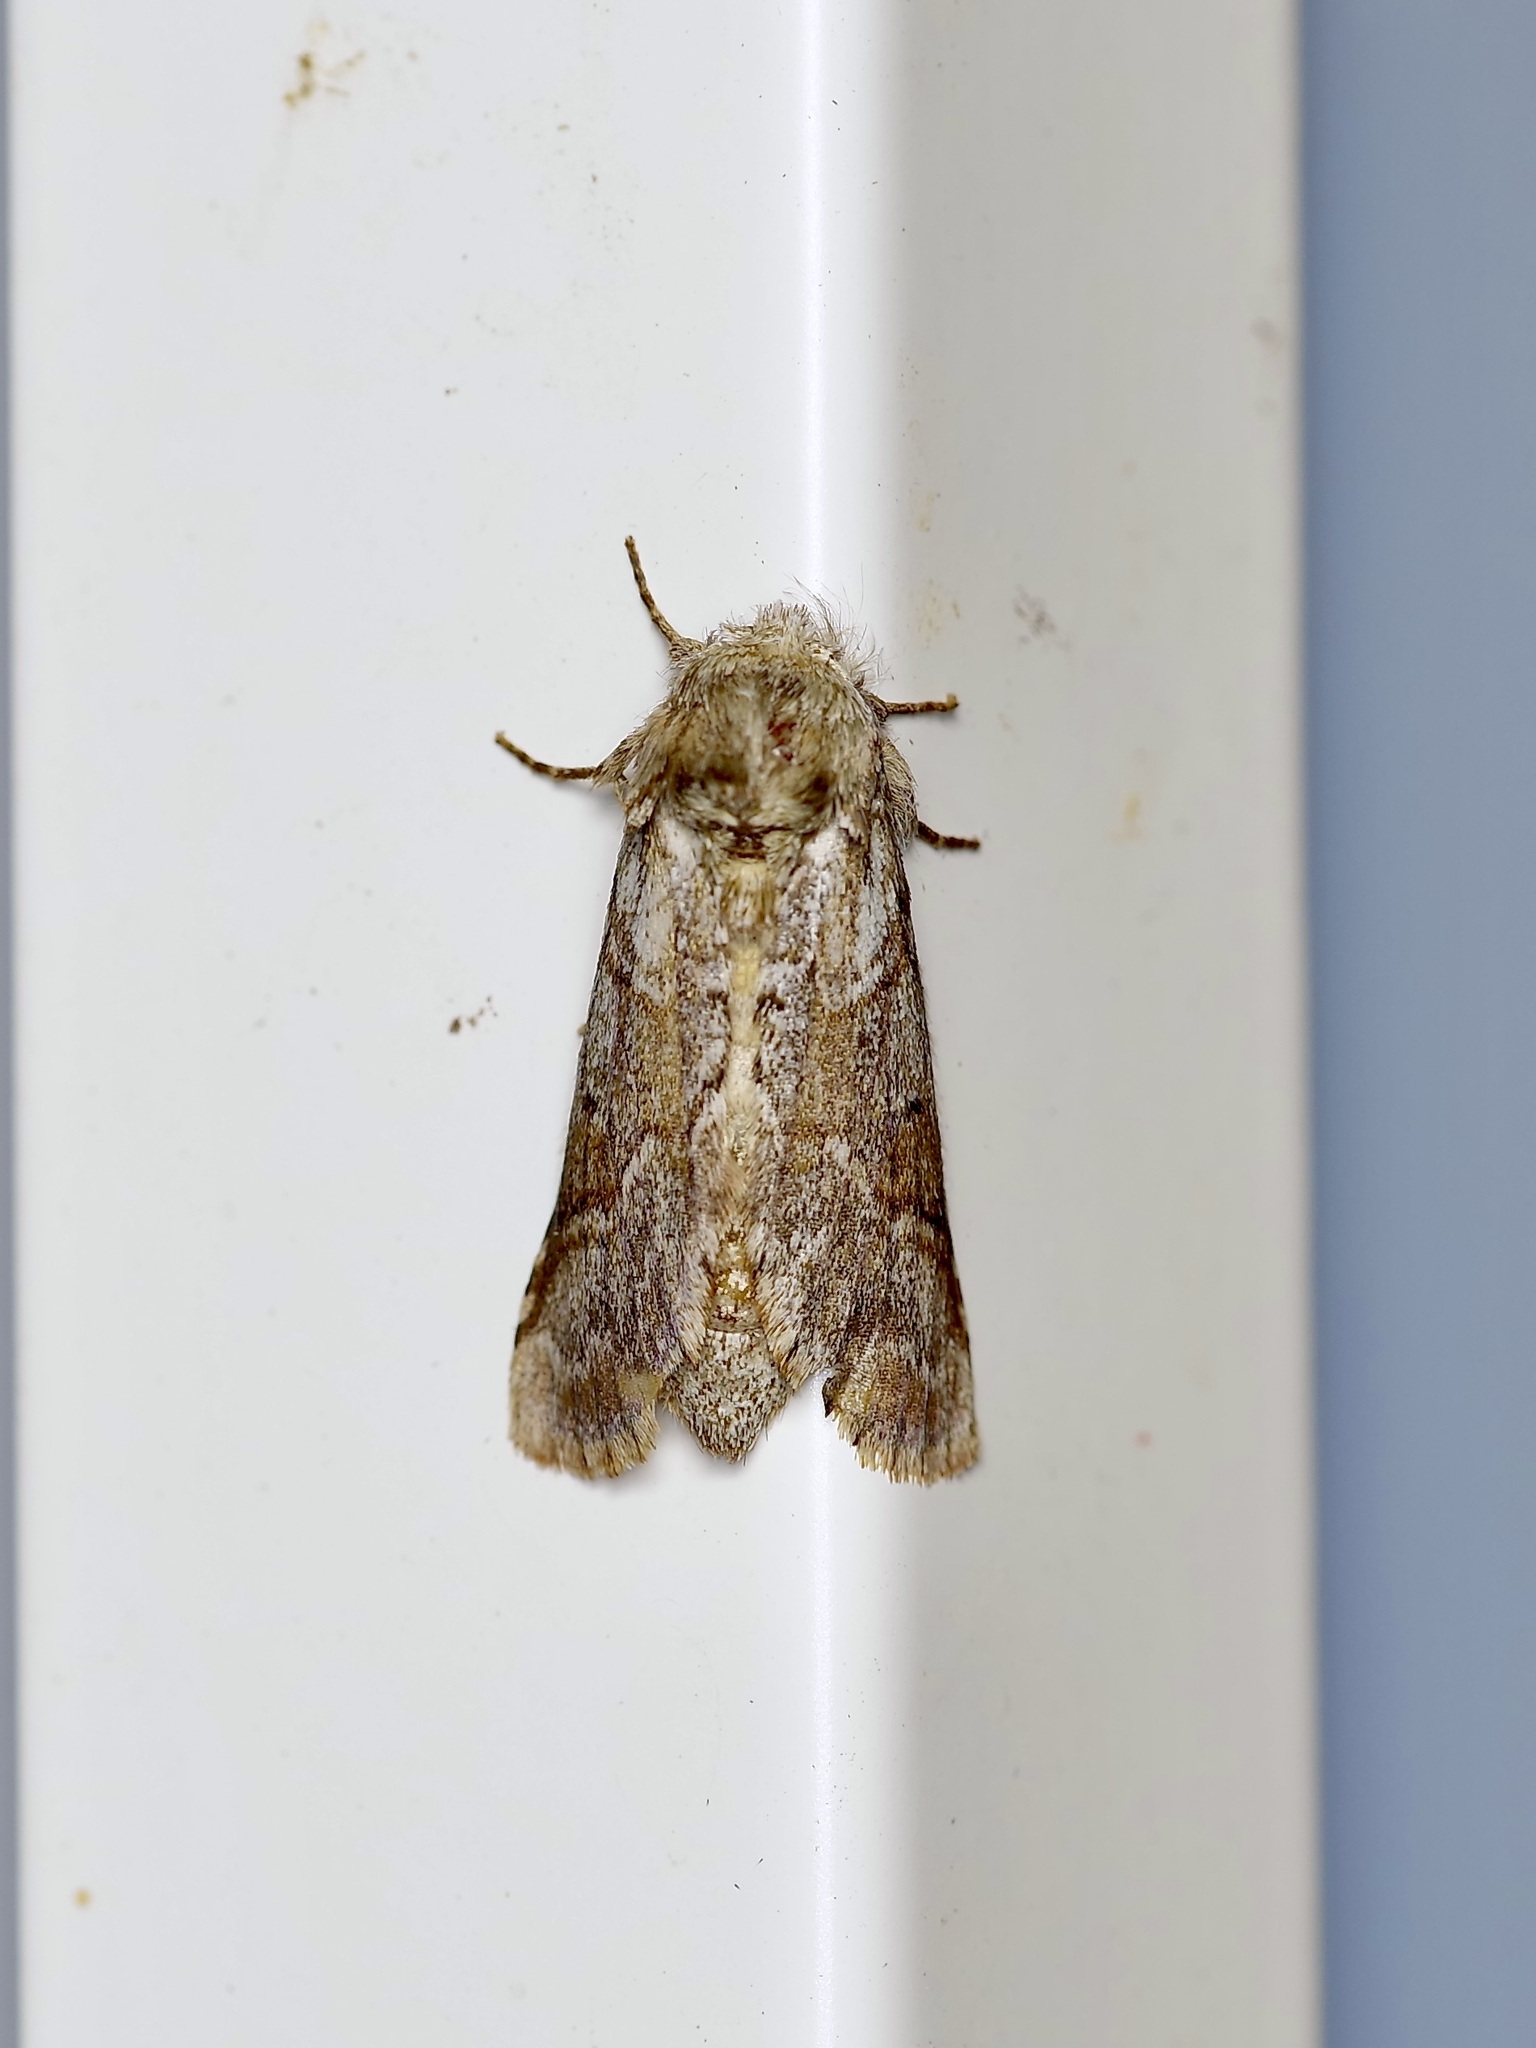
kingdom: Animalia
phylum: Arthropoda
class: Insecta
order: Lepidoptera
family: Notodontidae
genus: Lochmaeus
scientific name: Lochmaeus bilineata
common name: Double-lined prominent
